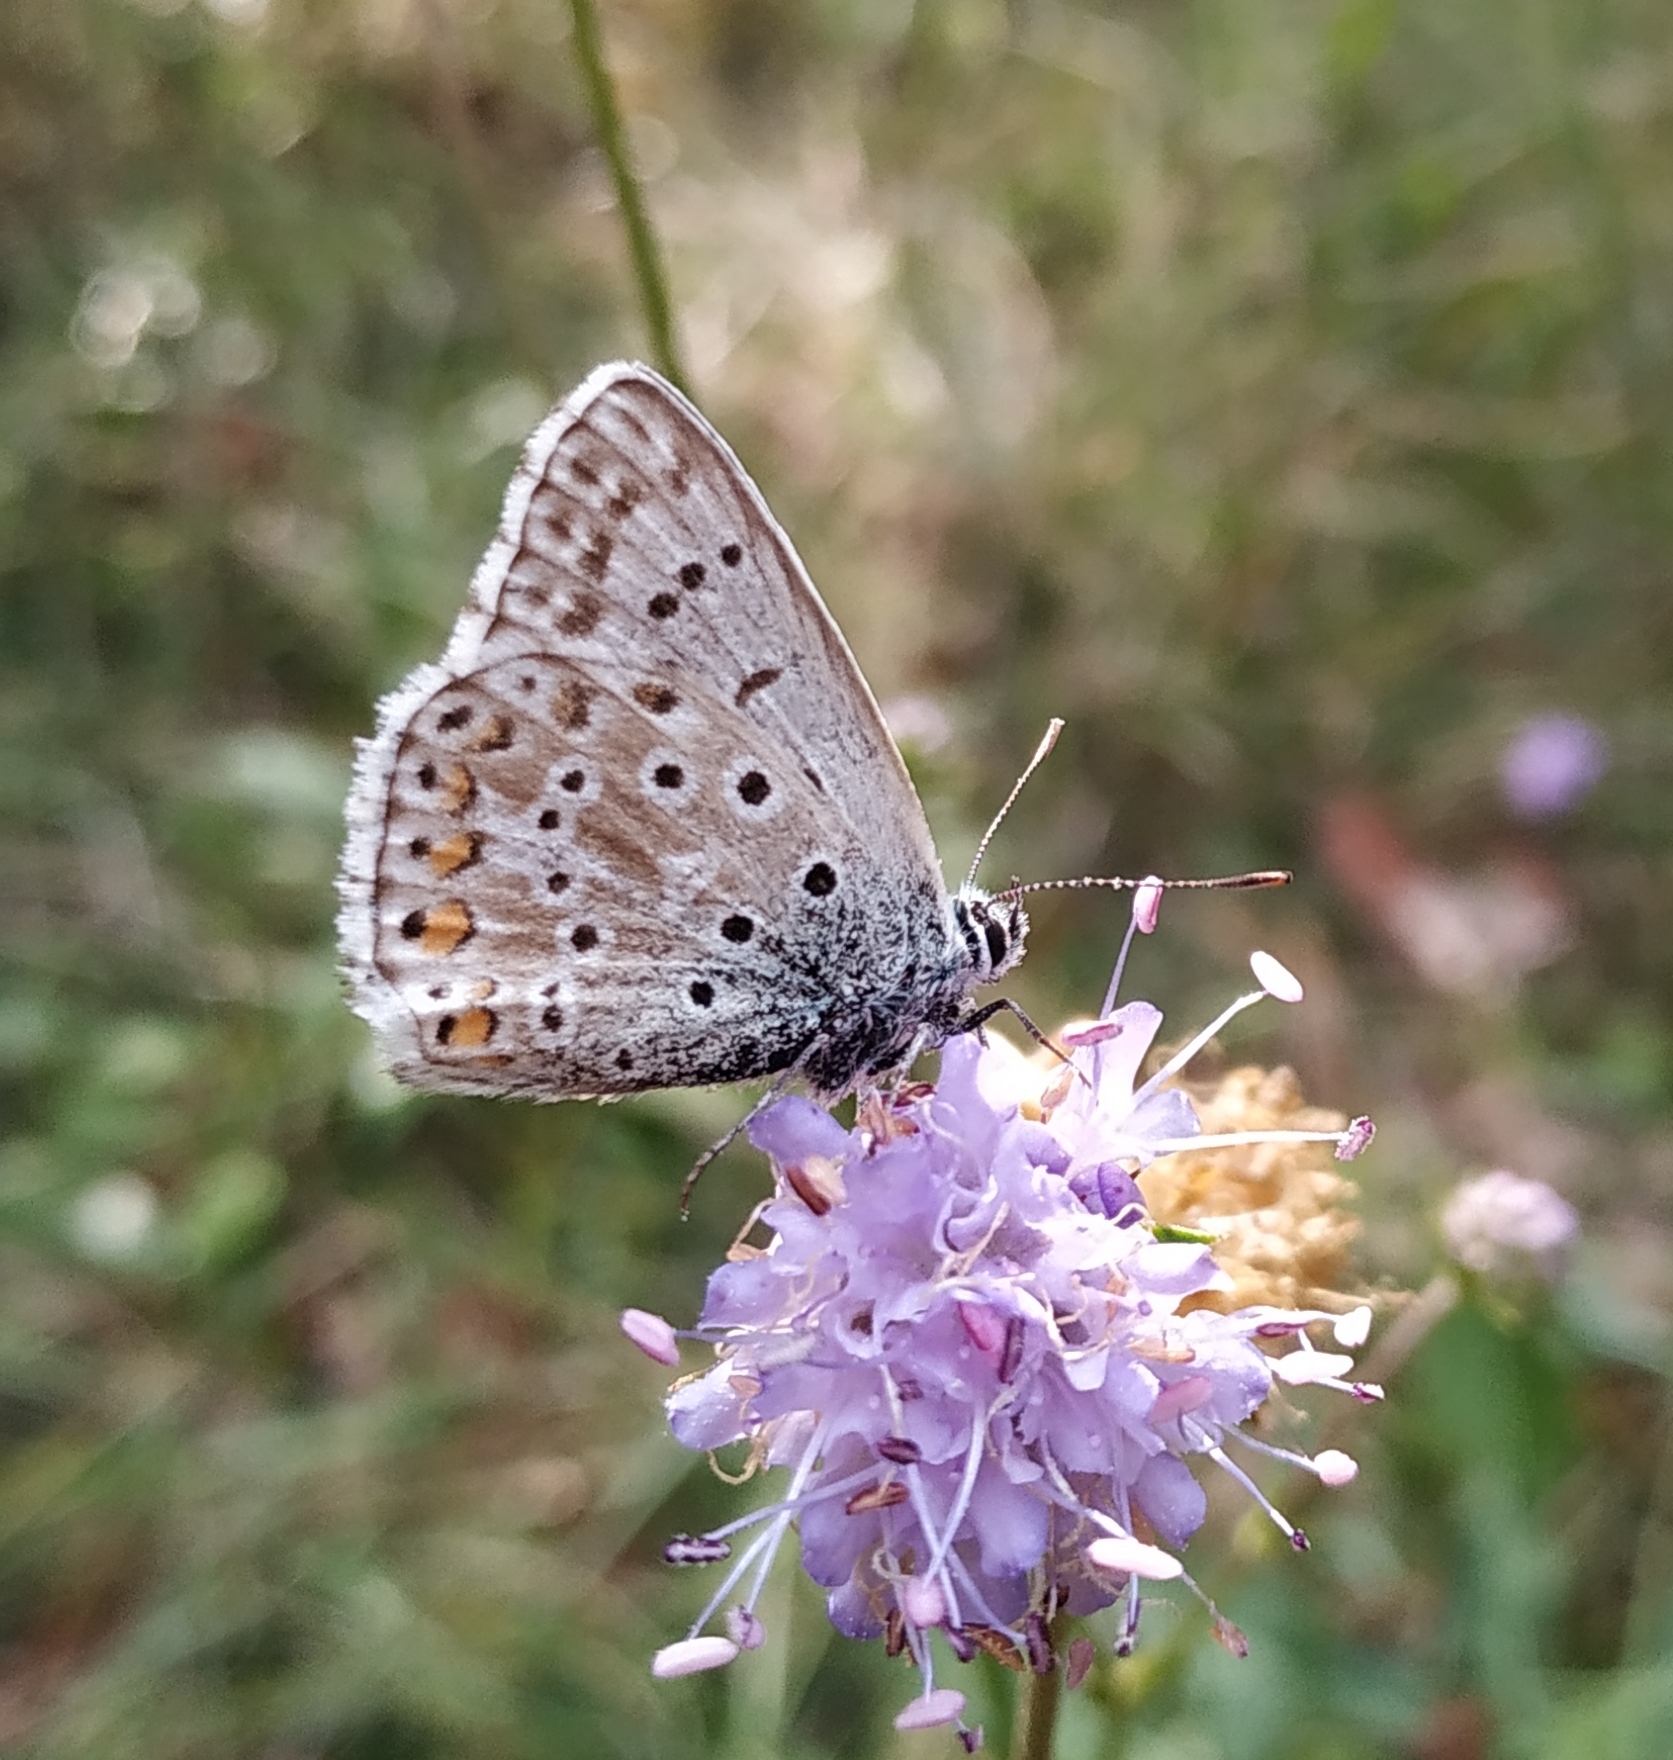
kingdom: Animalia
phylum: Arthropoda
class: Insecta
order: Lepidoptera
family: Lycaenidae
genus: Lysandra
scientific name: Lysandra hispana
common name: Provence chalkhill blue
